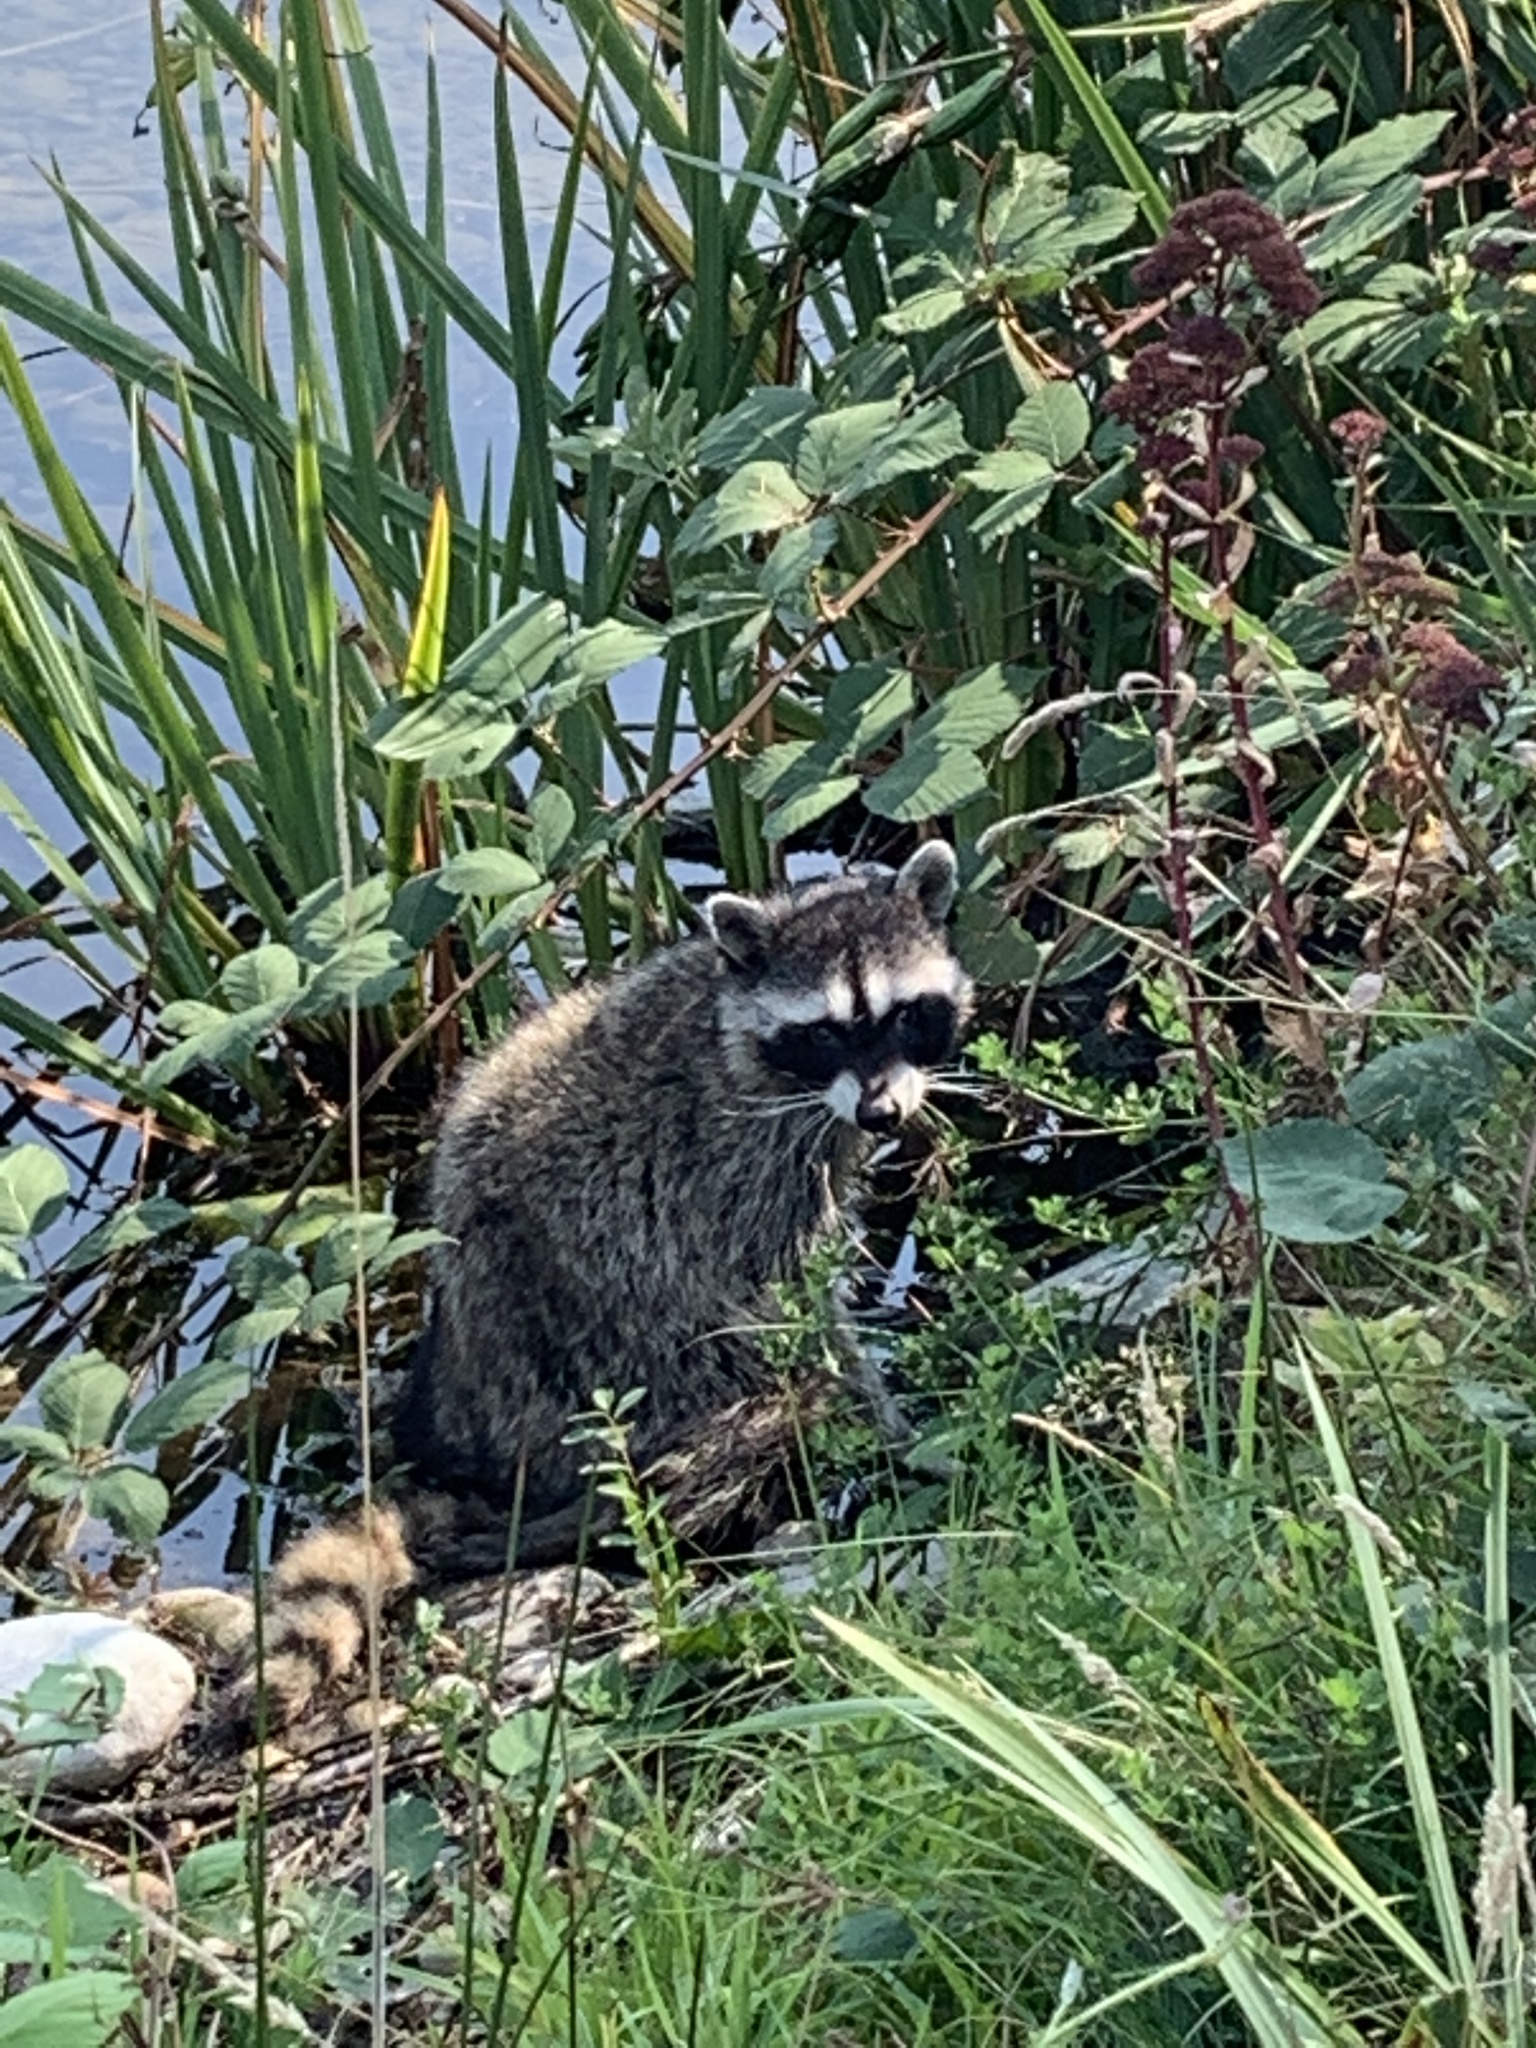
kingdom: Animalia
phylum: Chordata
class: Mammalia
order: Carnivora
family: Procyonidae
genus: Procyon
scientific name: Procyon lotor
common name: Raccoon
